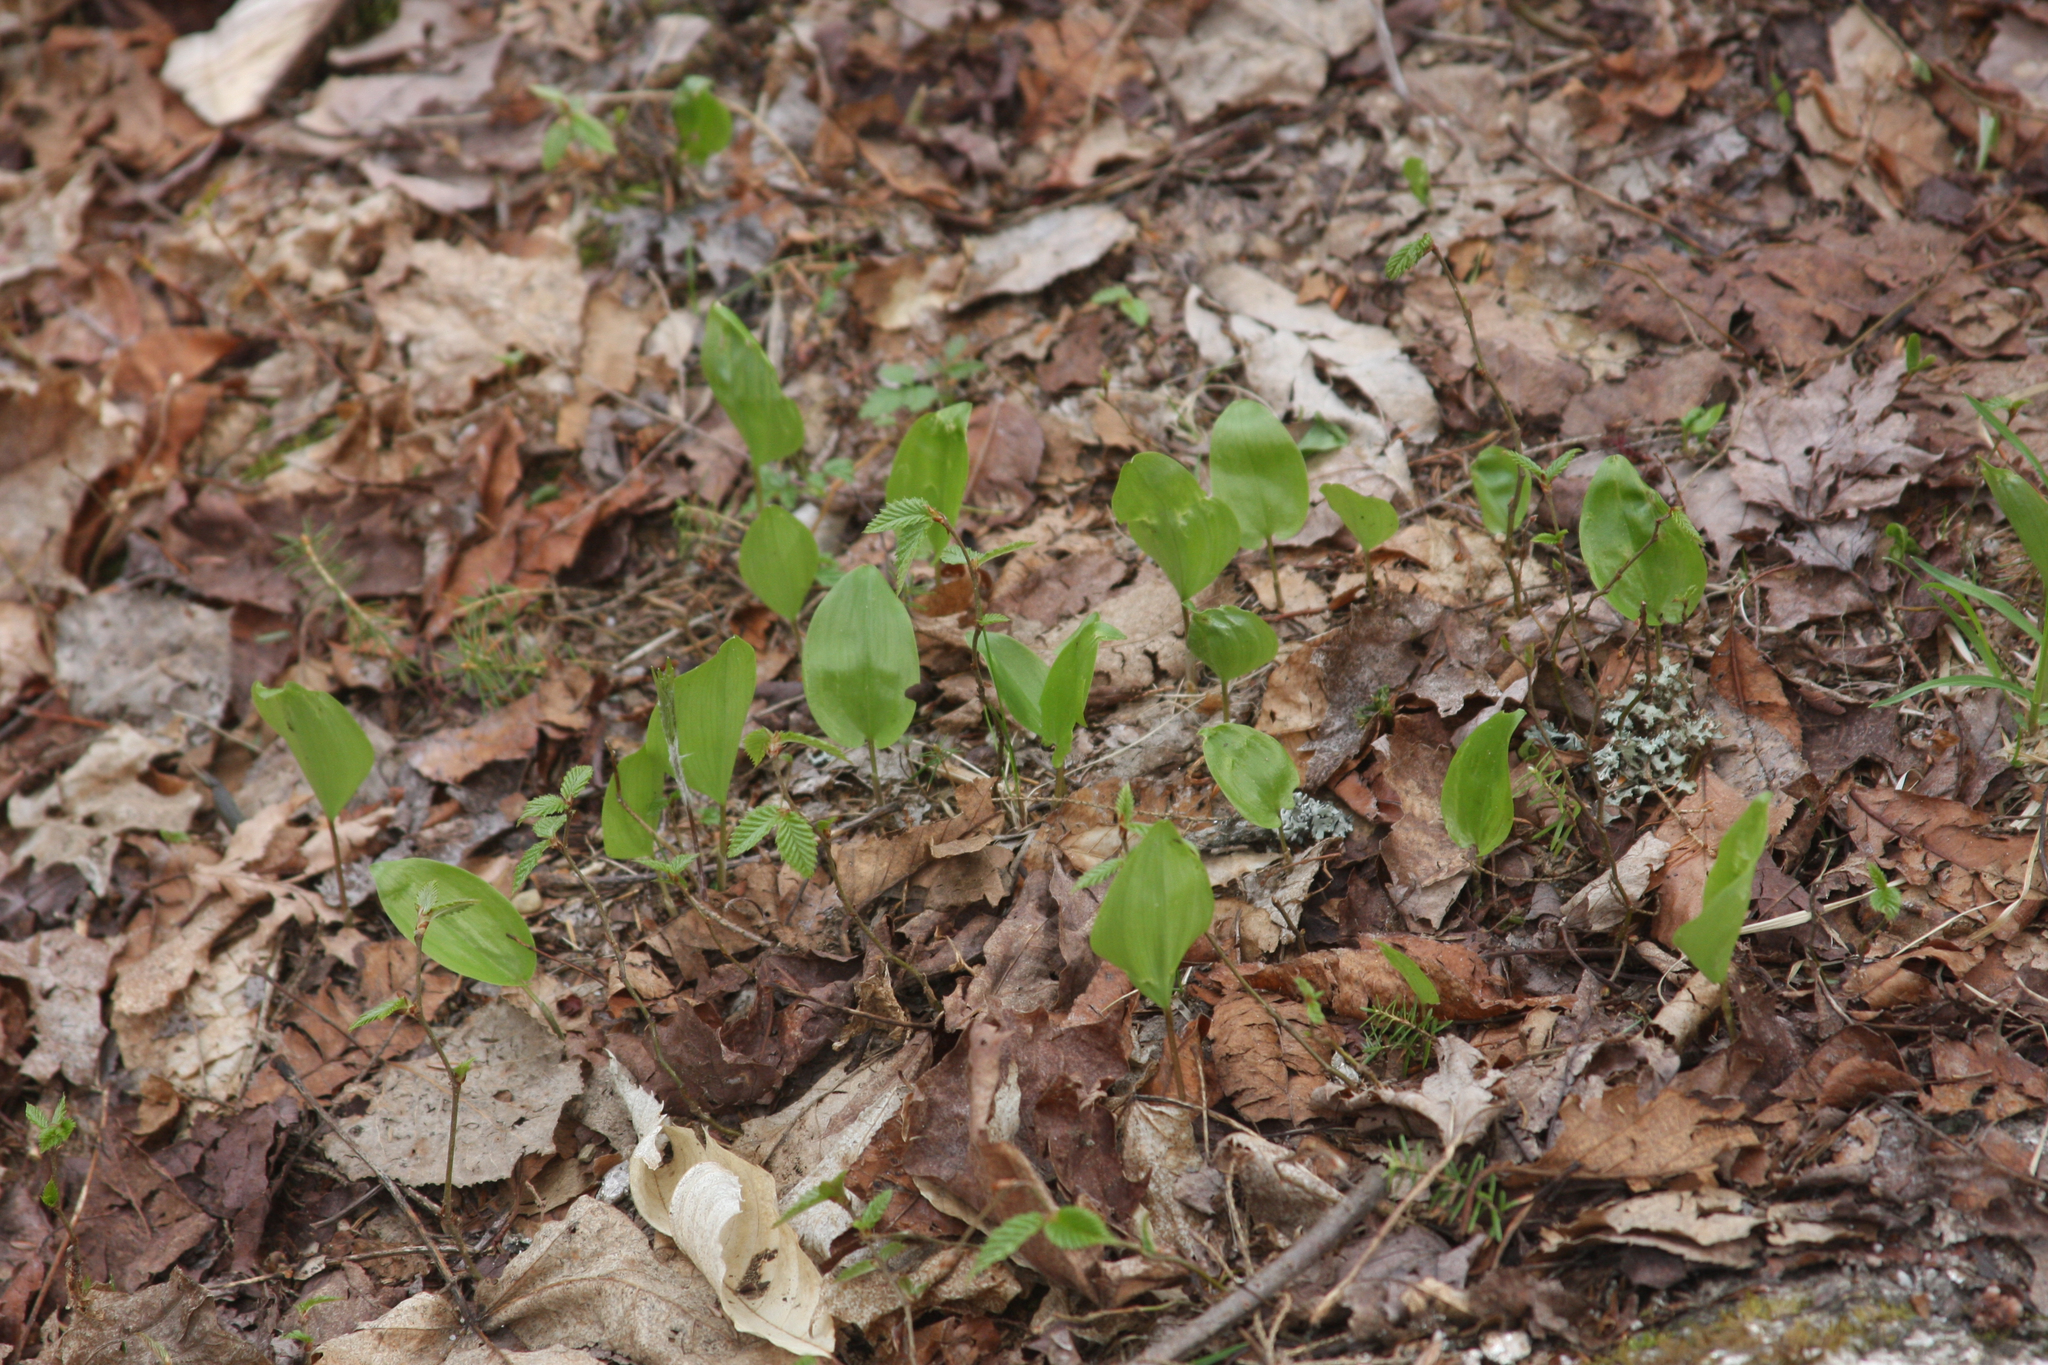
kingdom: Plantae
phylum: Tracheophyta
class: Liliopsida
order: Asparagales
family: Asparagaceae
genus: Maianthemum
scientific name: Maianthemum canadense
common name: False lily-of-the-valley
